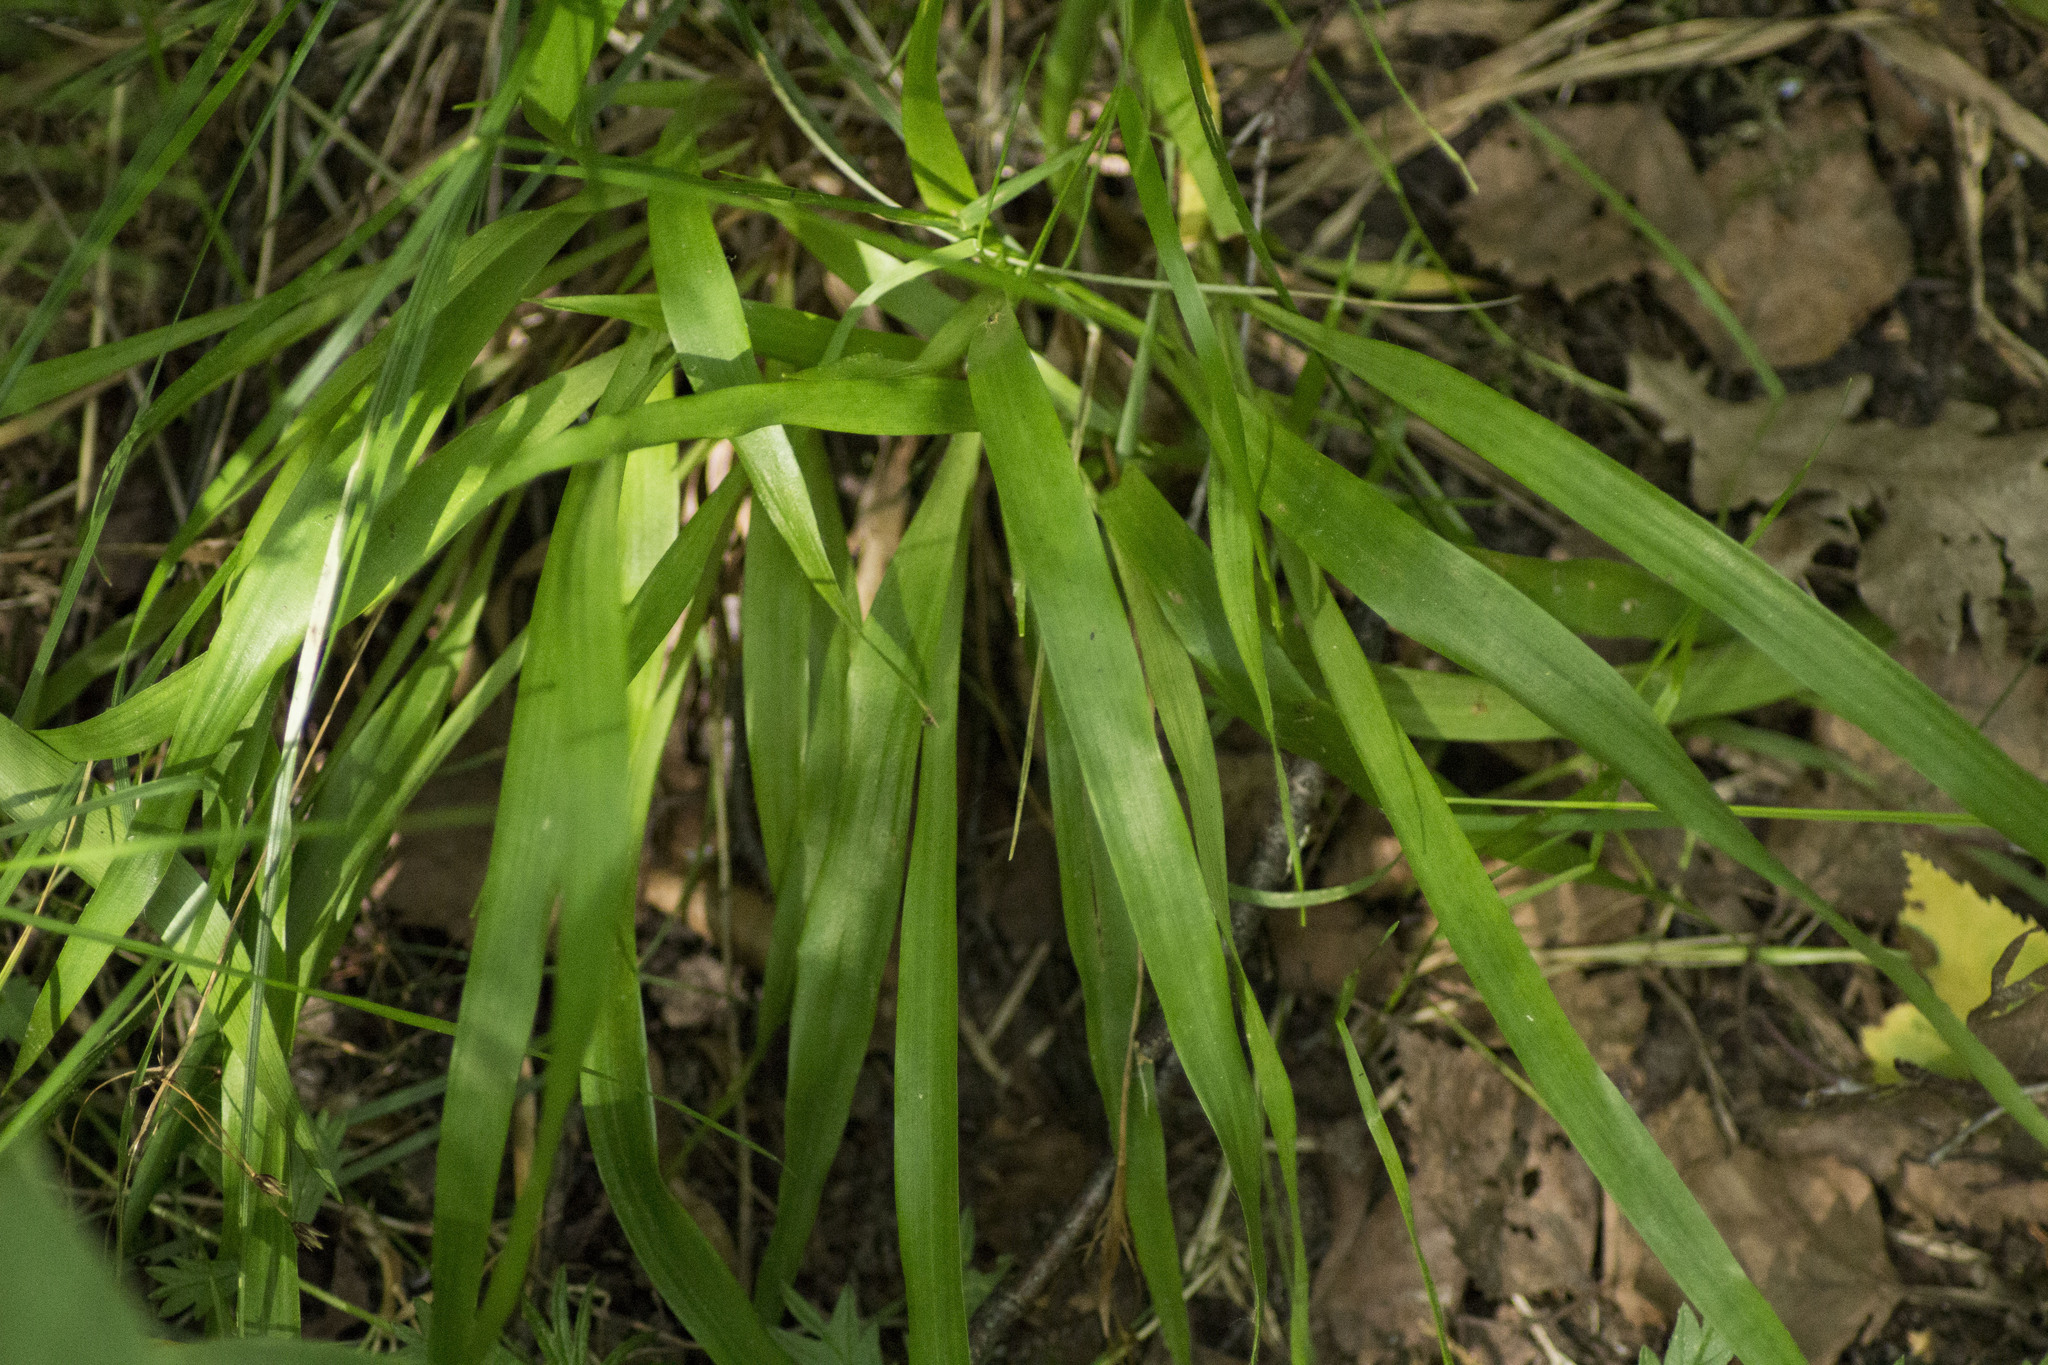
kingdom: Plantae
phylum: Tracheophyta
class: Liliopsida
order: Poales
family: Juncaceae
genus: Luzula
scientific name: Luzula pilosa
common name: Hairy wood-rush
